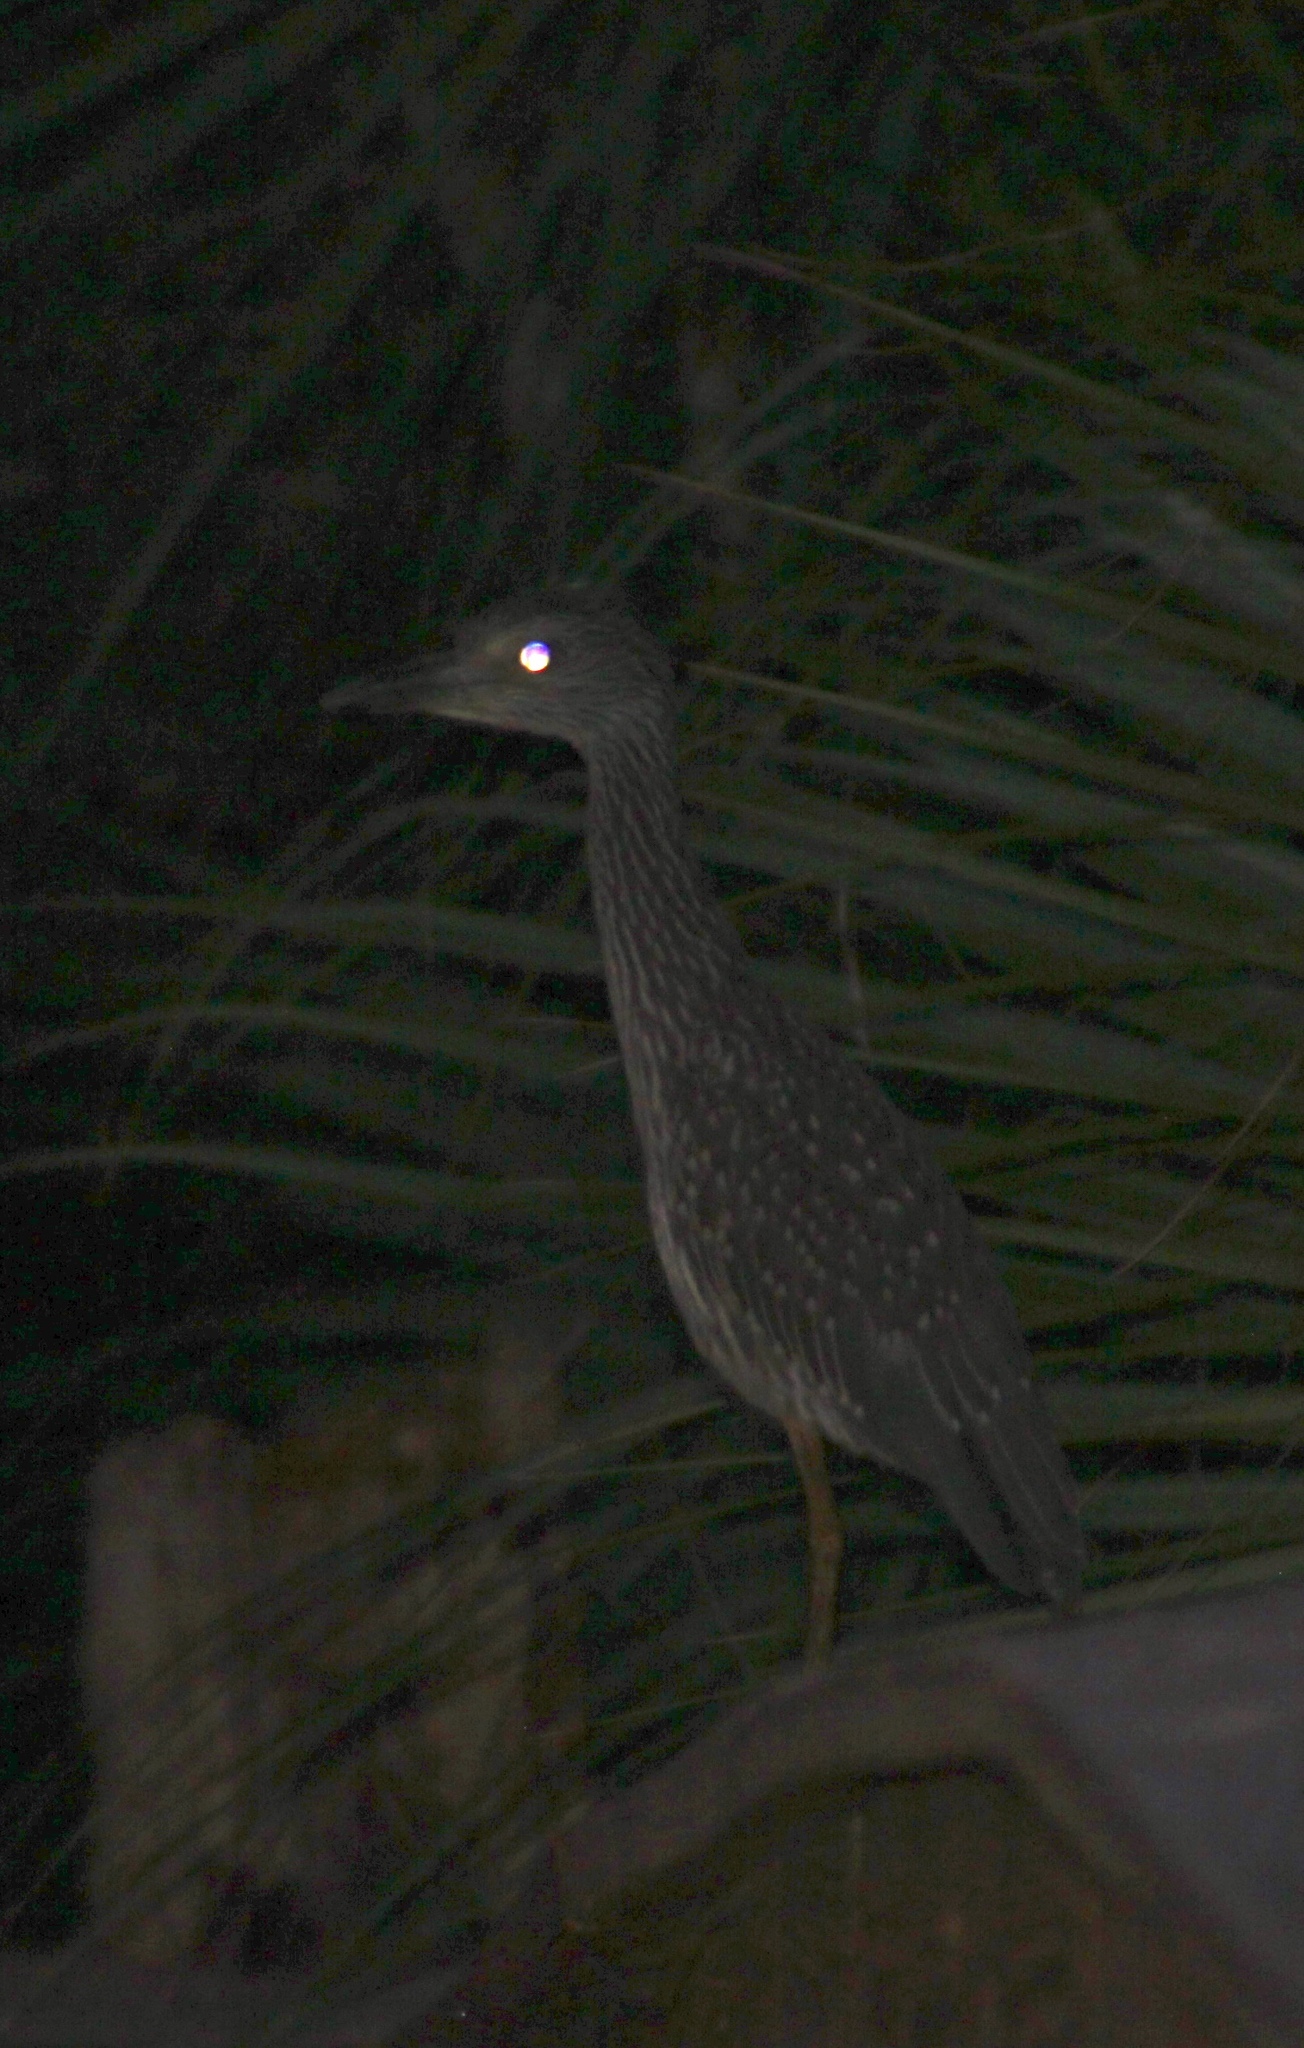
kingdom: Animalia
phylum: Chordata
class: Aves
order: Pelecaniformes
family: Ardeidae
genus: Nyctanassa
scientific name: Nyctanassa violacea
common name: Yellow-crowned night heron
